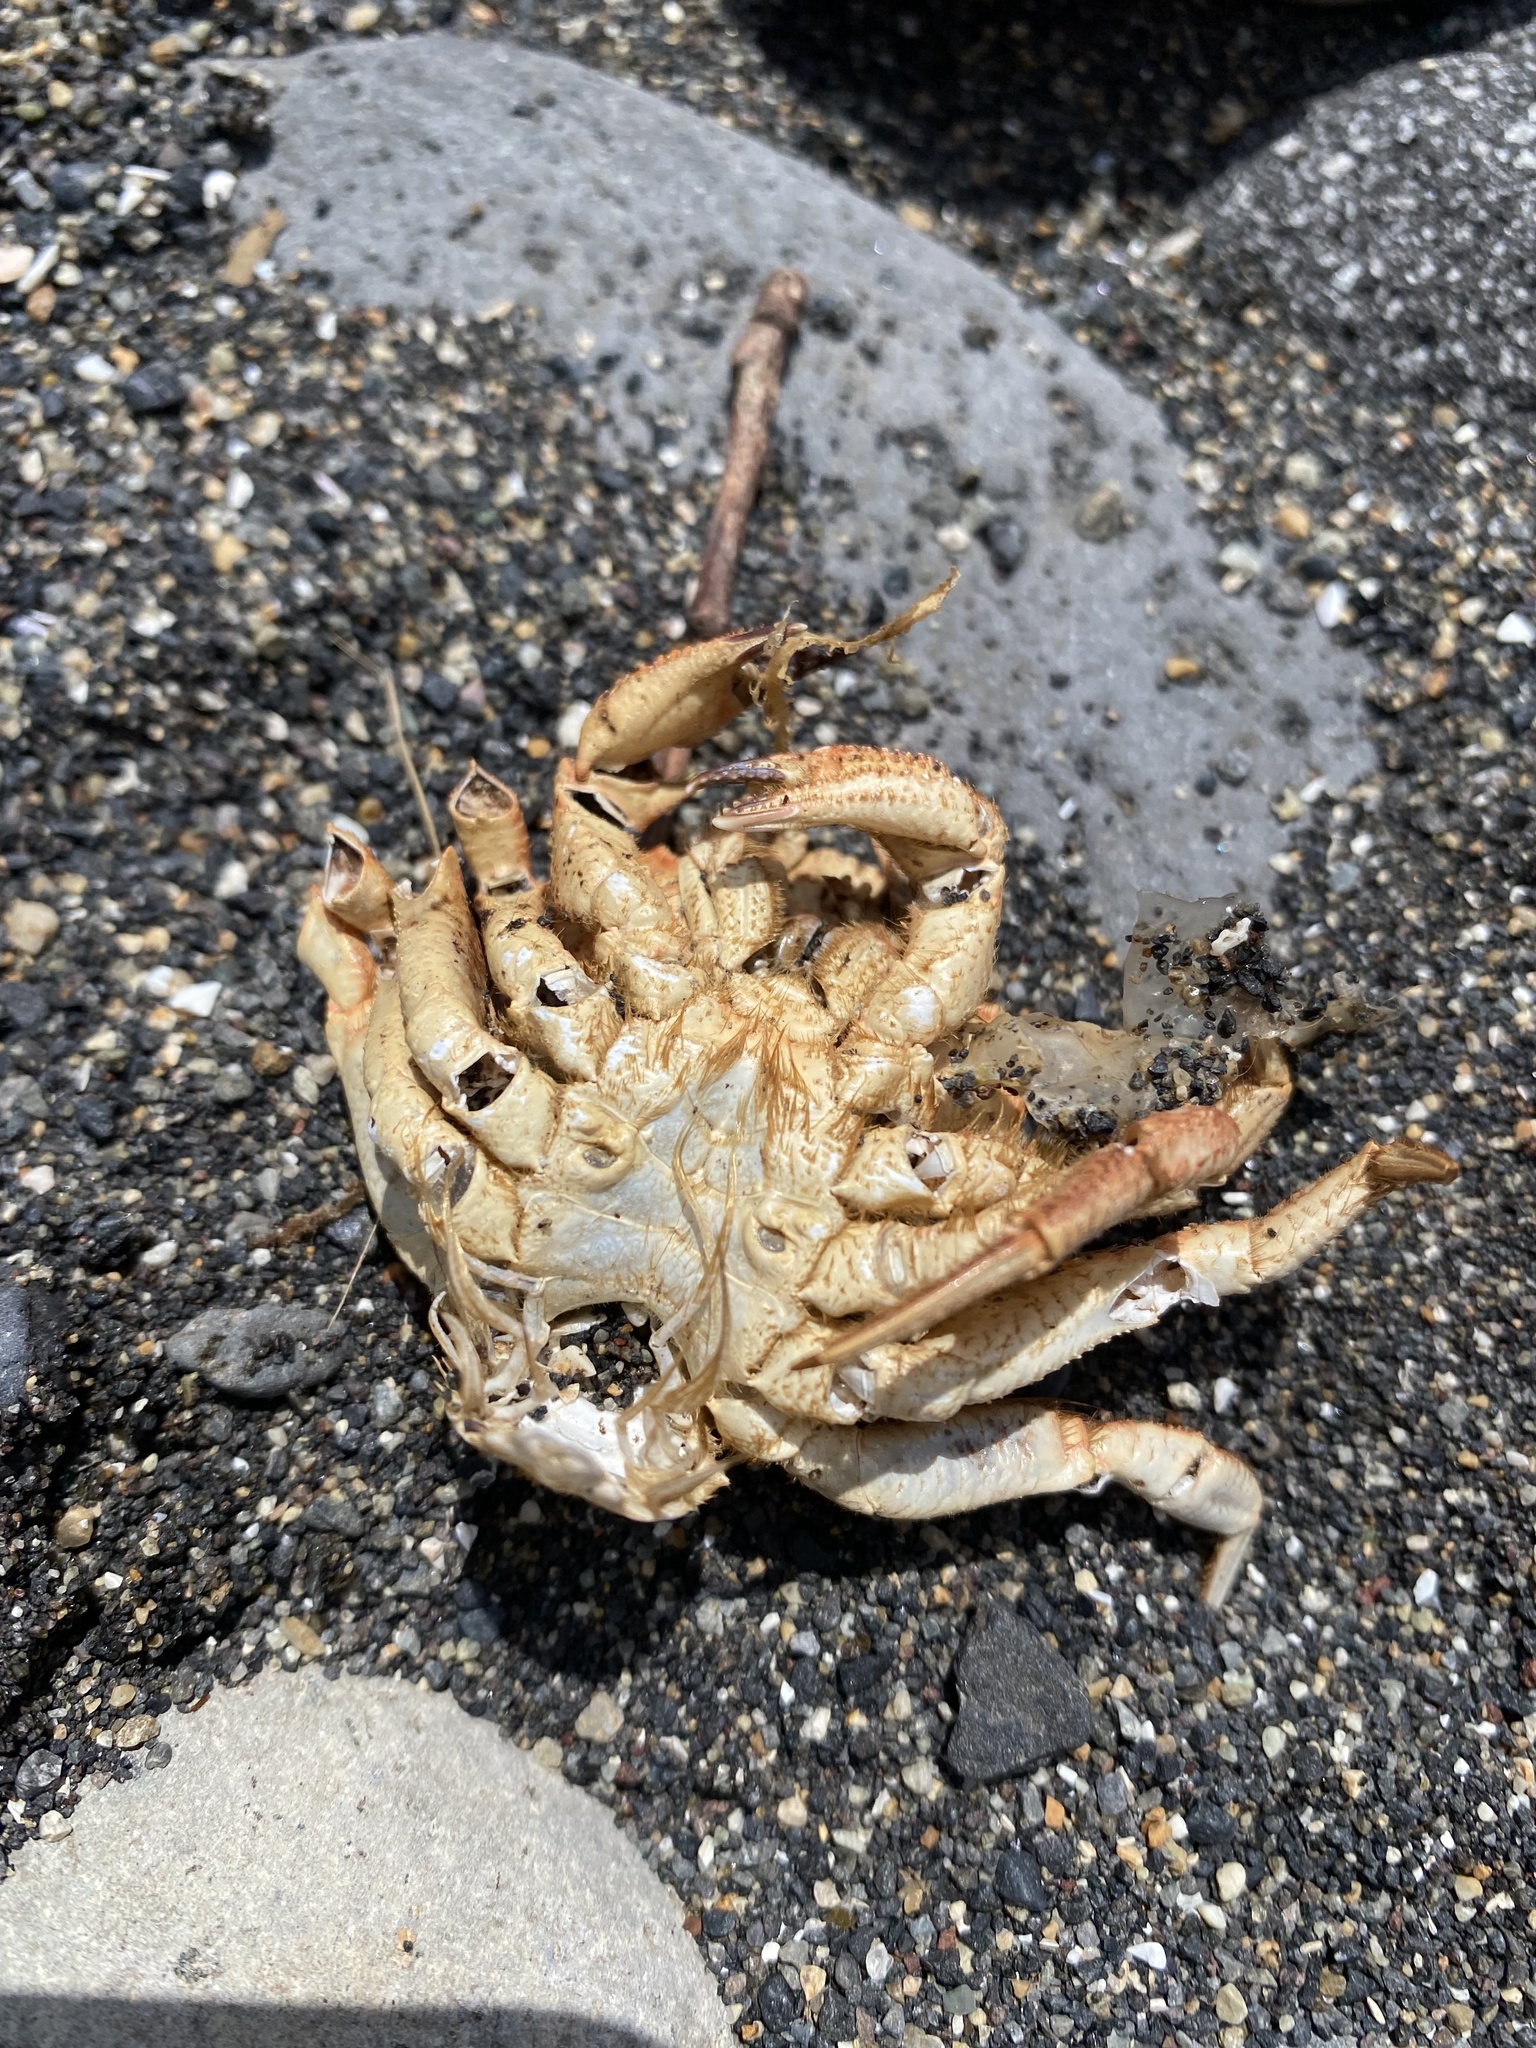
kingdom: Animalia
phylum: Arthropoda
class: Malacostraca
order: Decapoda
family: Cheiragonidae
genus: Telmessus
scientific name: Telmessus cheiragonus
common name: Helmet crab
